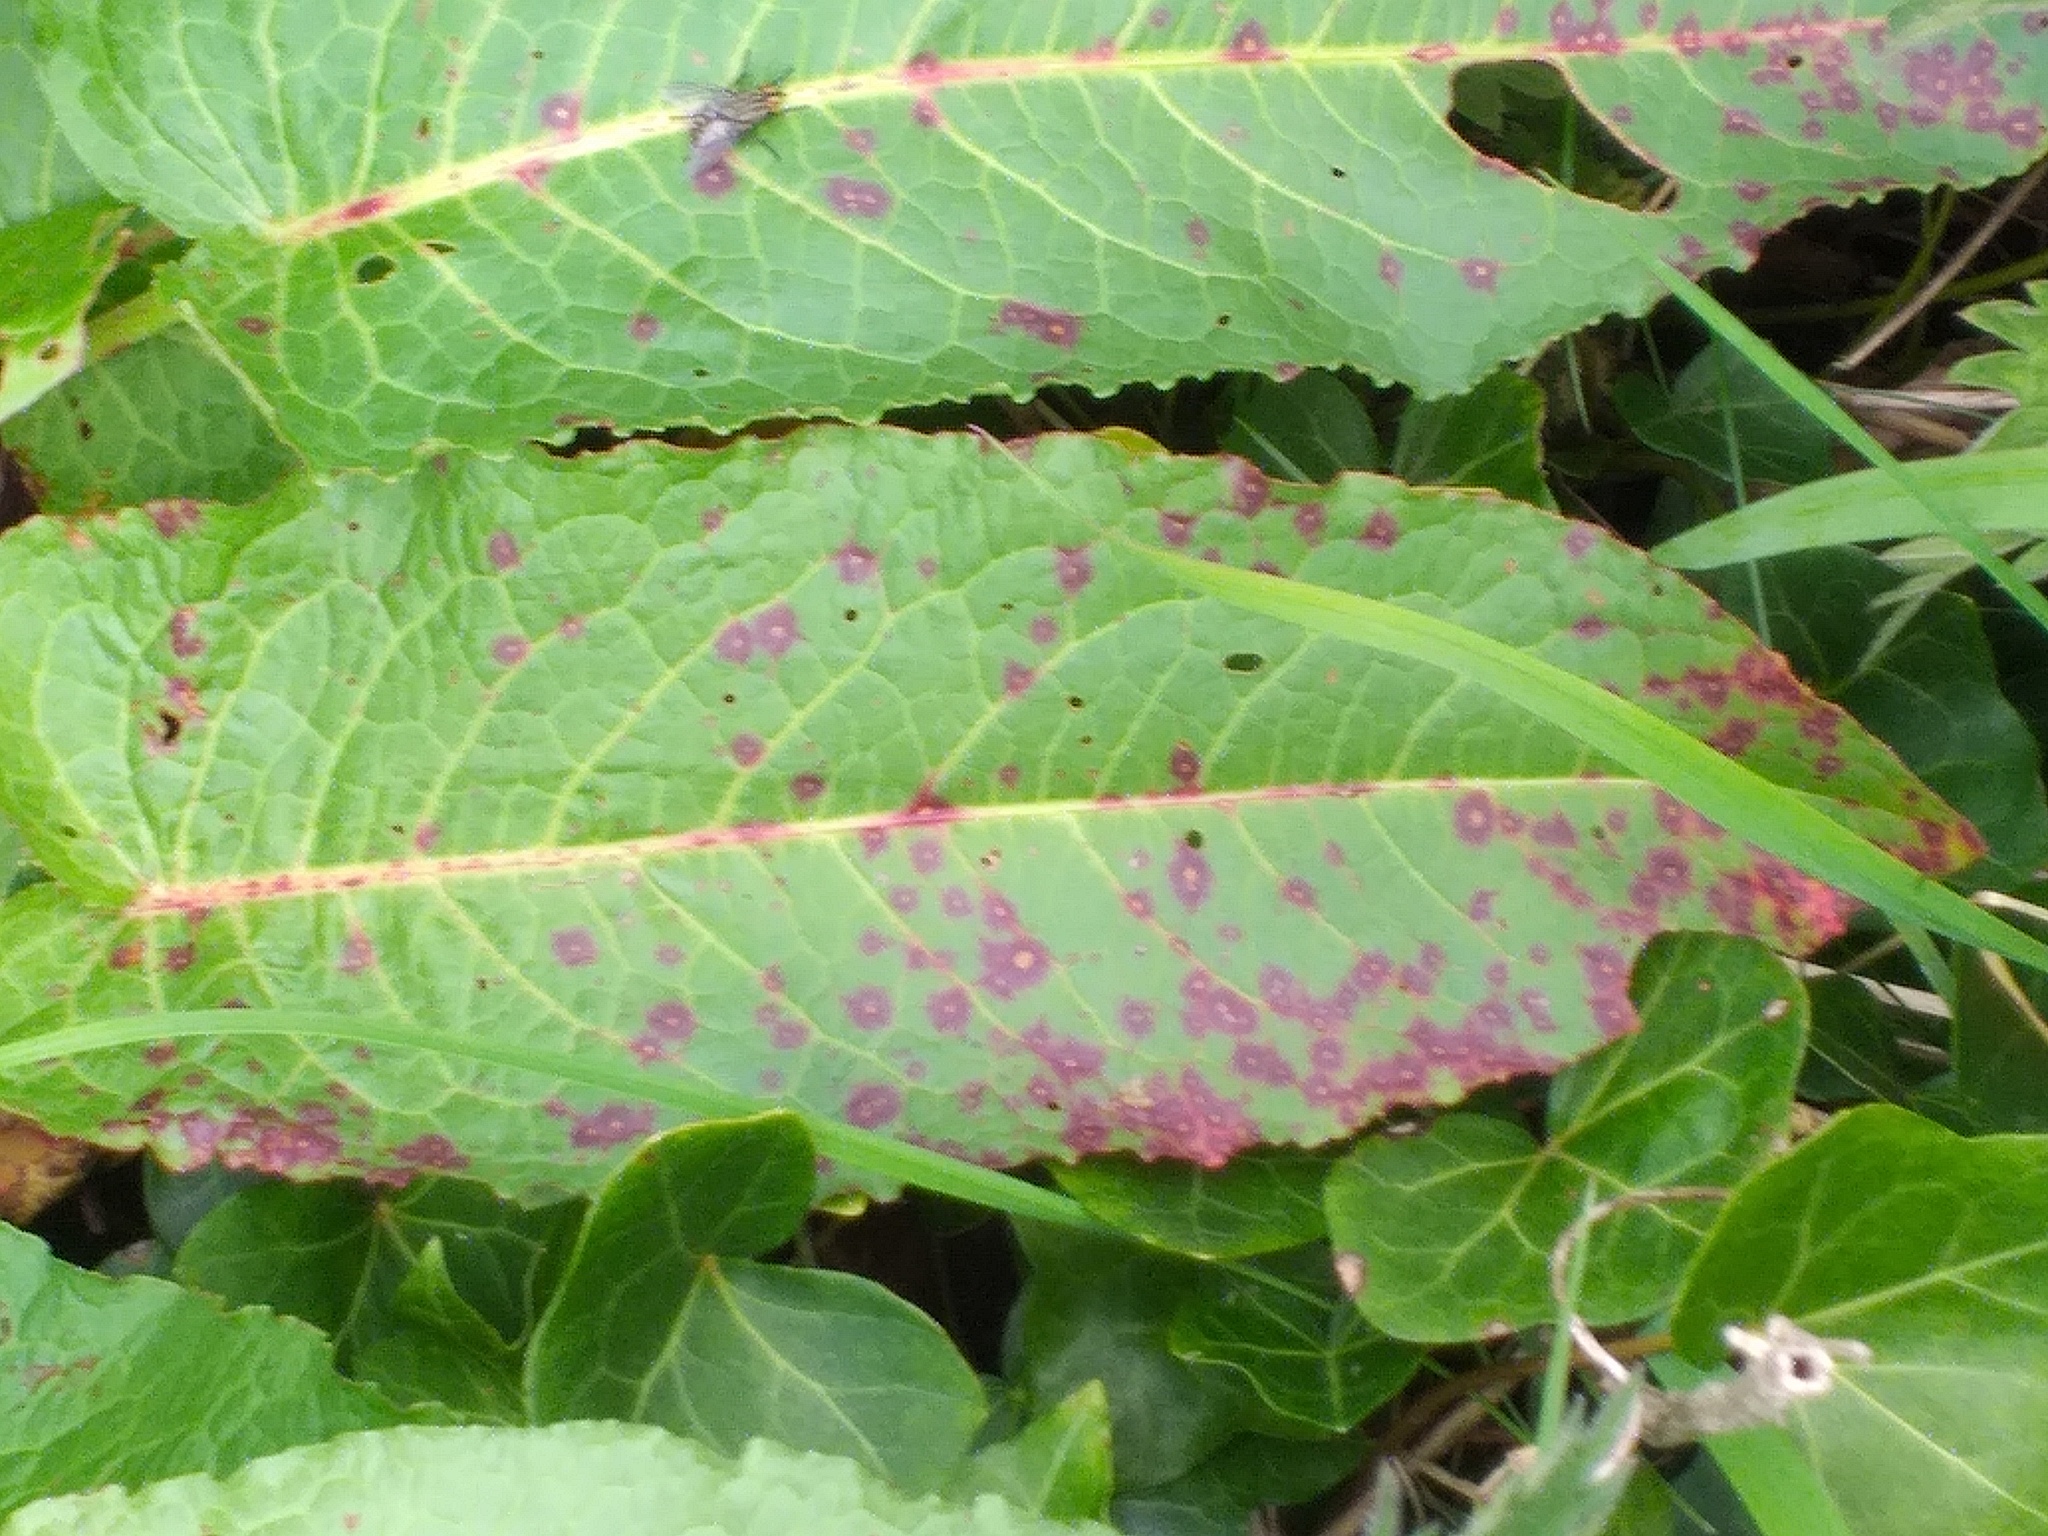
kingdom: Fungi
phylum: Ascomycota
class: Dothideomycetes
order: Mycosphaerellales
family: Mycosphaerellaceae
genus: Ramularia
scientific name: Ramularia rubella
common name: Red dock spot
